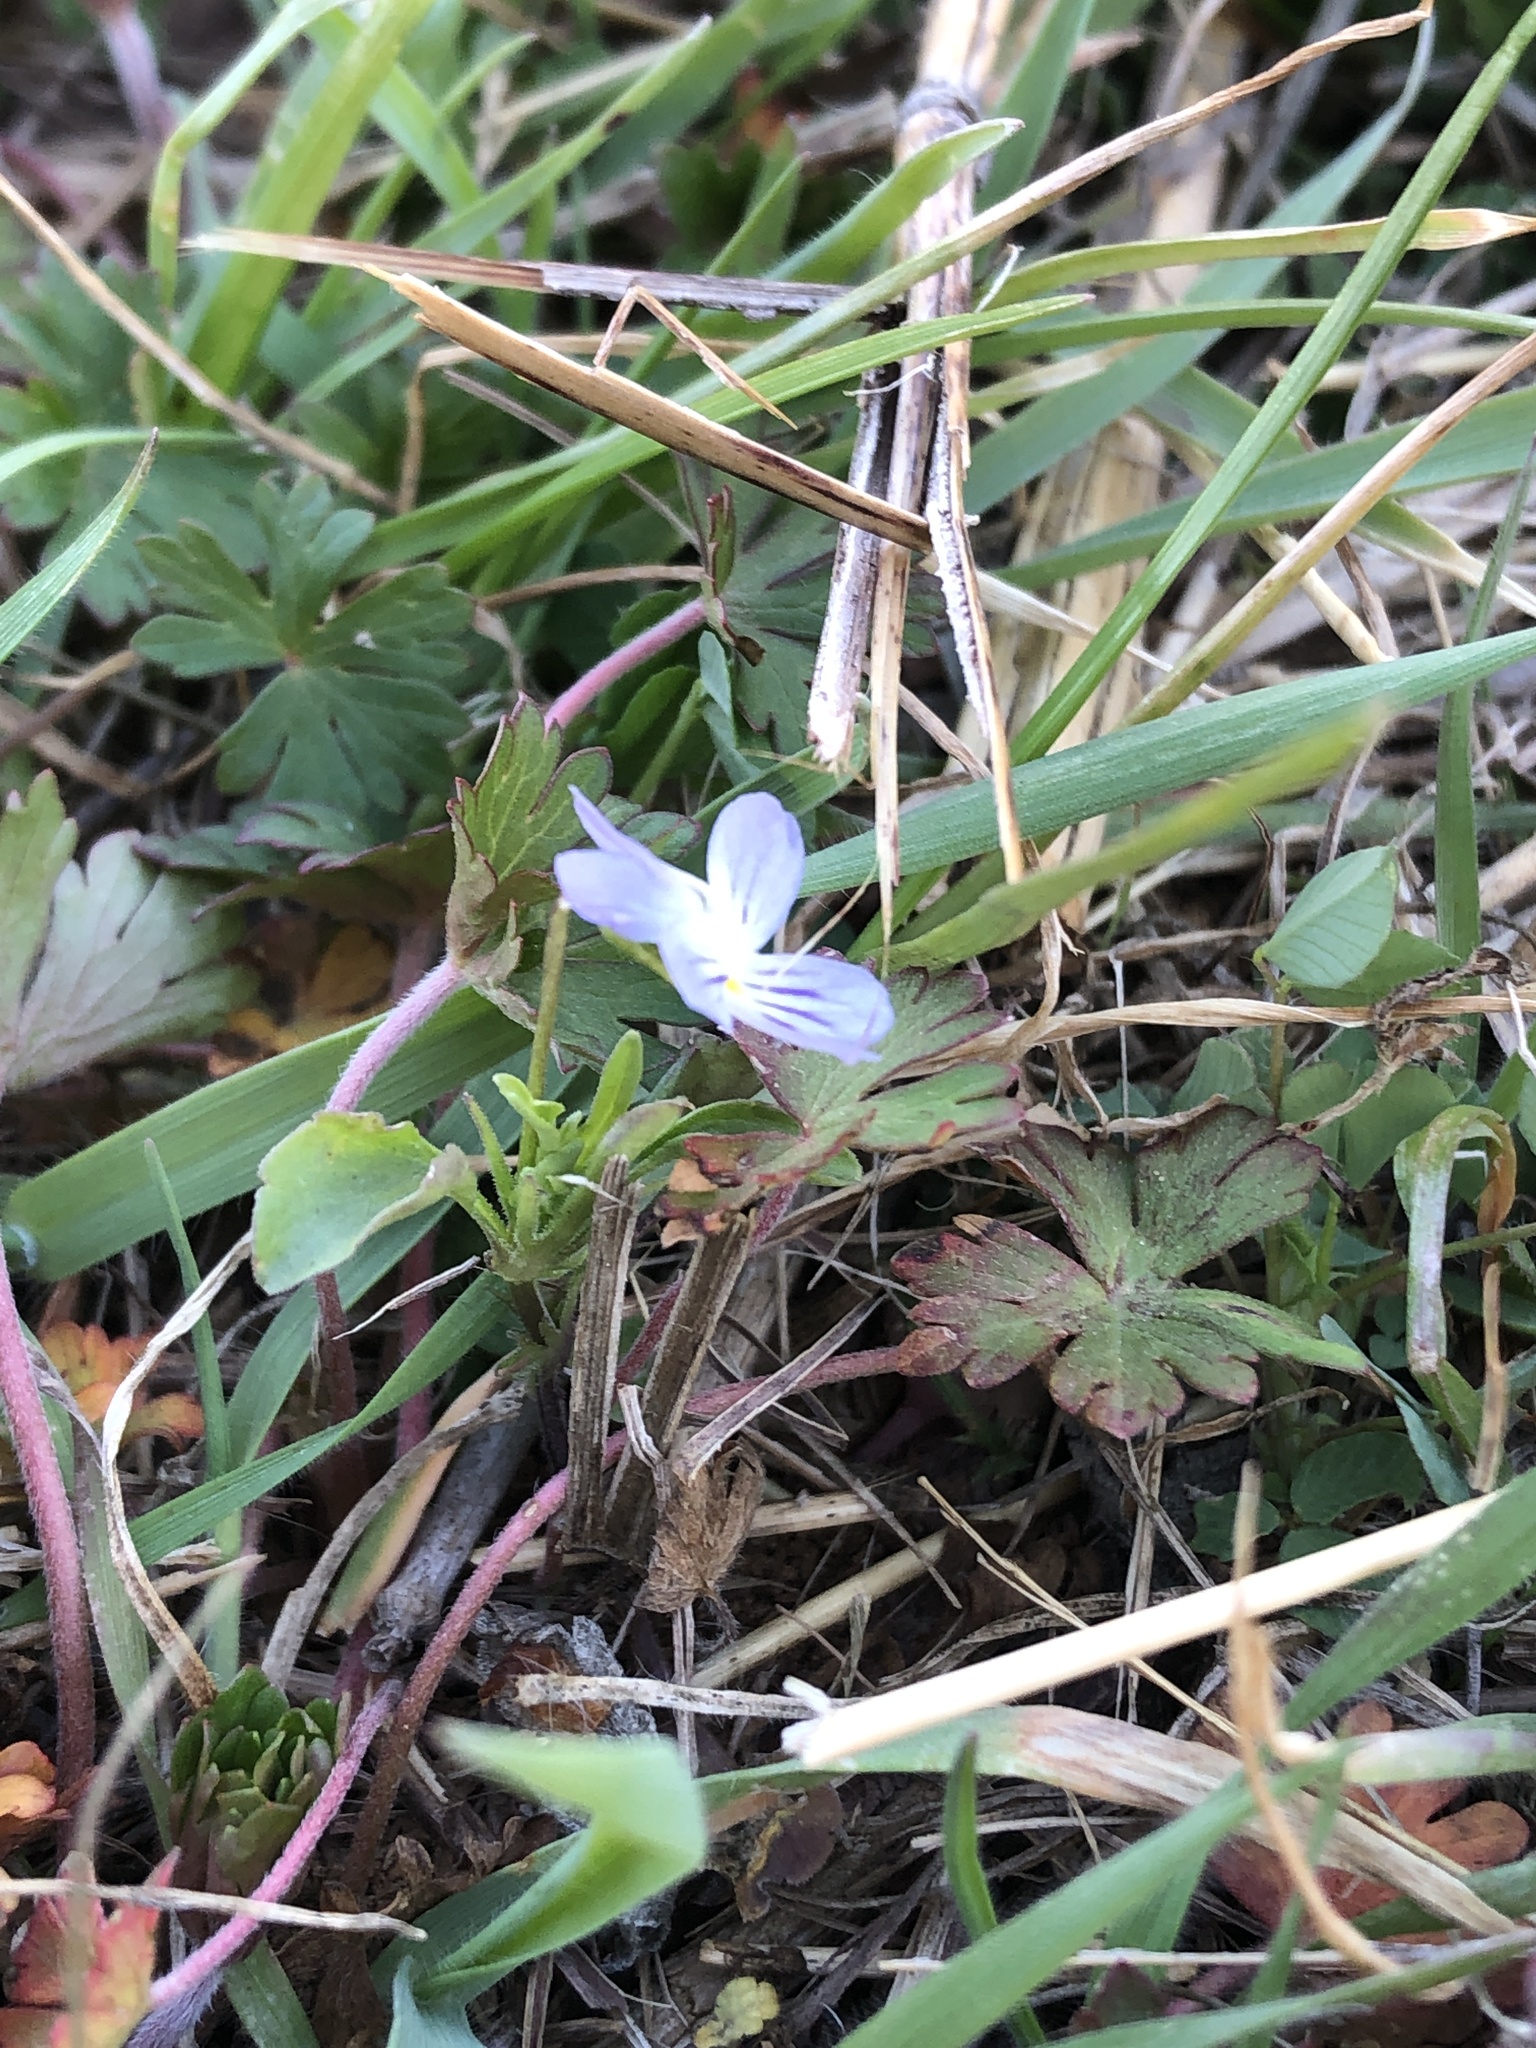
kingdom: Plantae
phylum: Tracheophyta
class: Magnoliopsida
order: Malpighiales
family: Violaceae
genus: Viola
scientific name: Viola rafinesquei
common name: American field pansy
